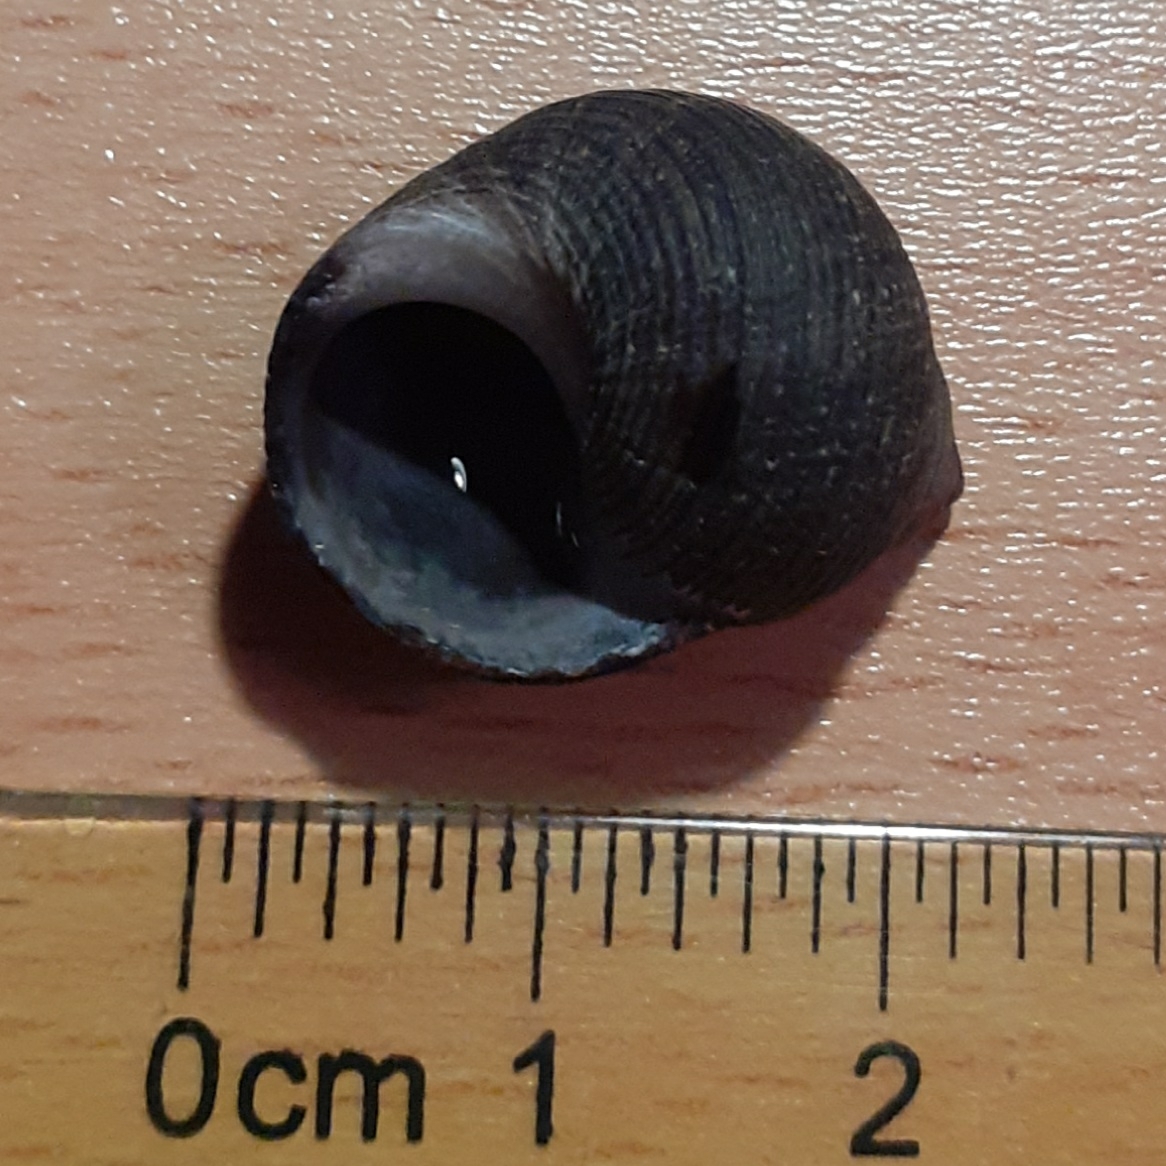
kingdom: Animalia
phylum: Mollusca
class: Gastropoda
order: Littorinimorpha
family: Littorinidae
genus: Littorina
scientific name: Littorina littorea
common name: Common periwinkle
